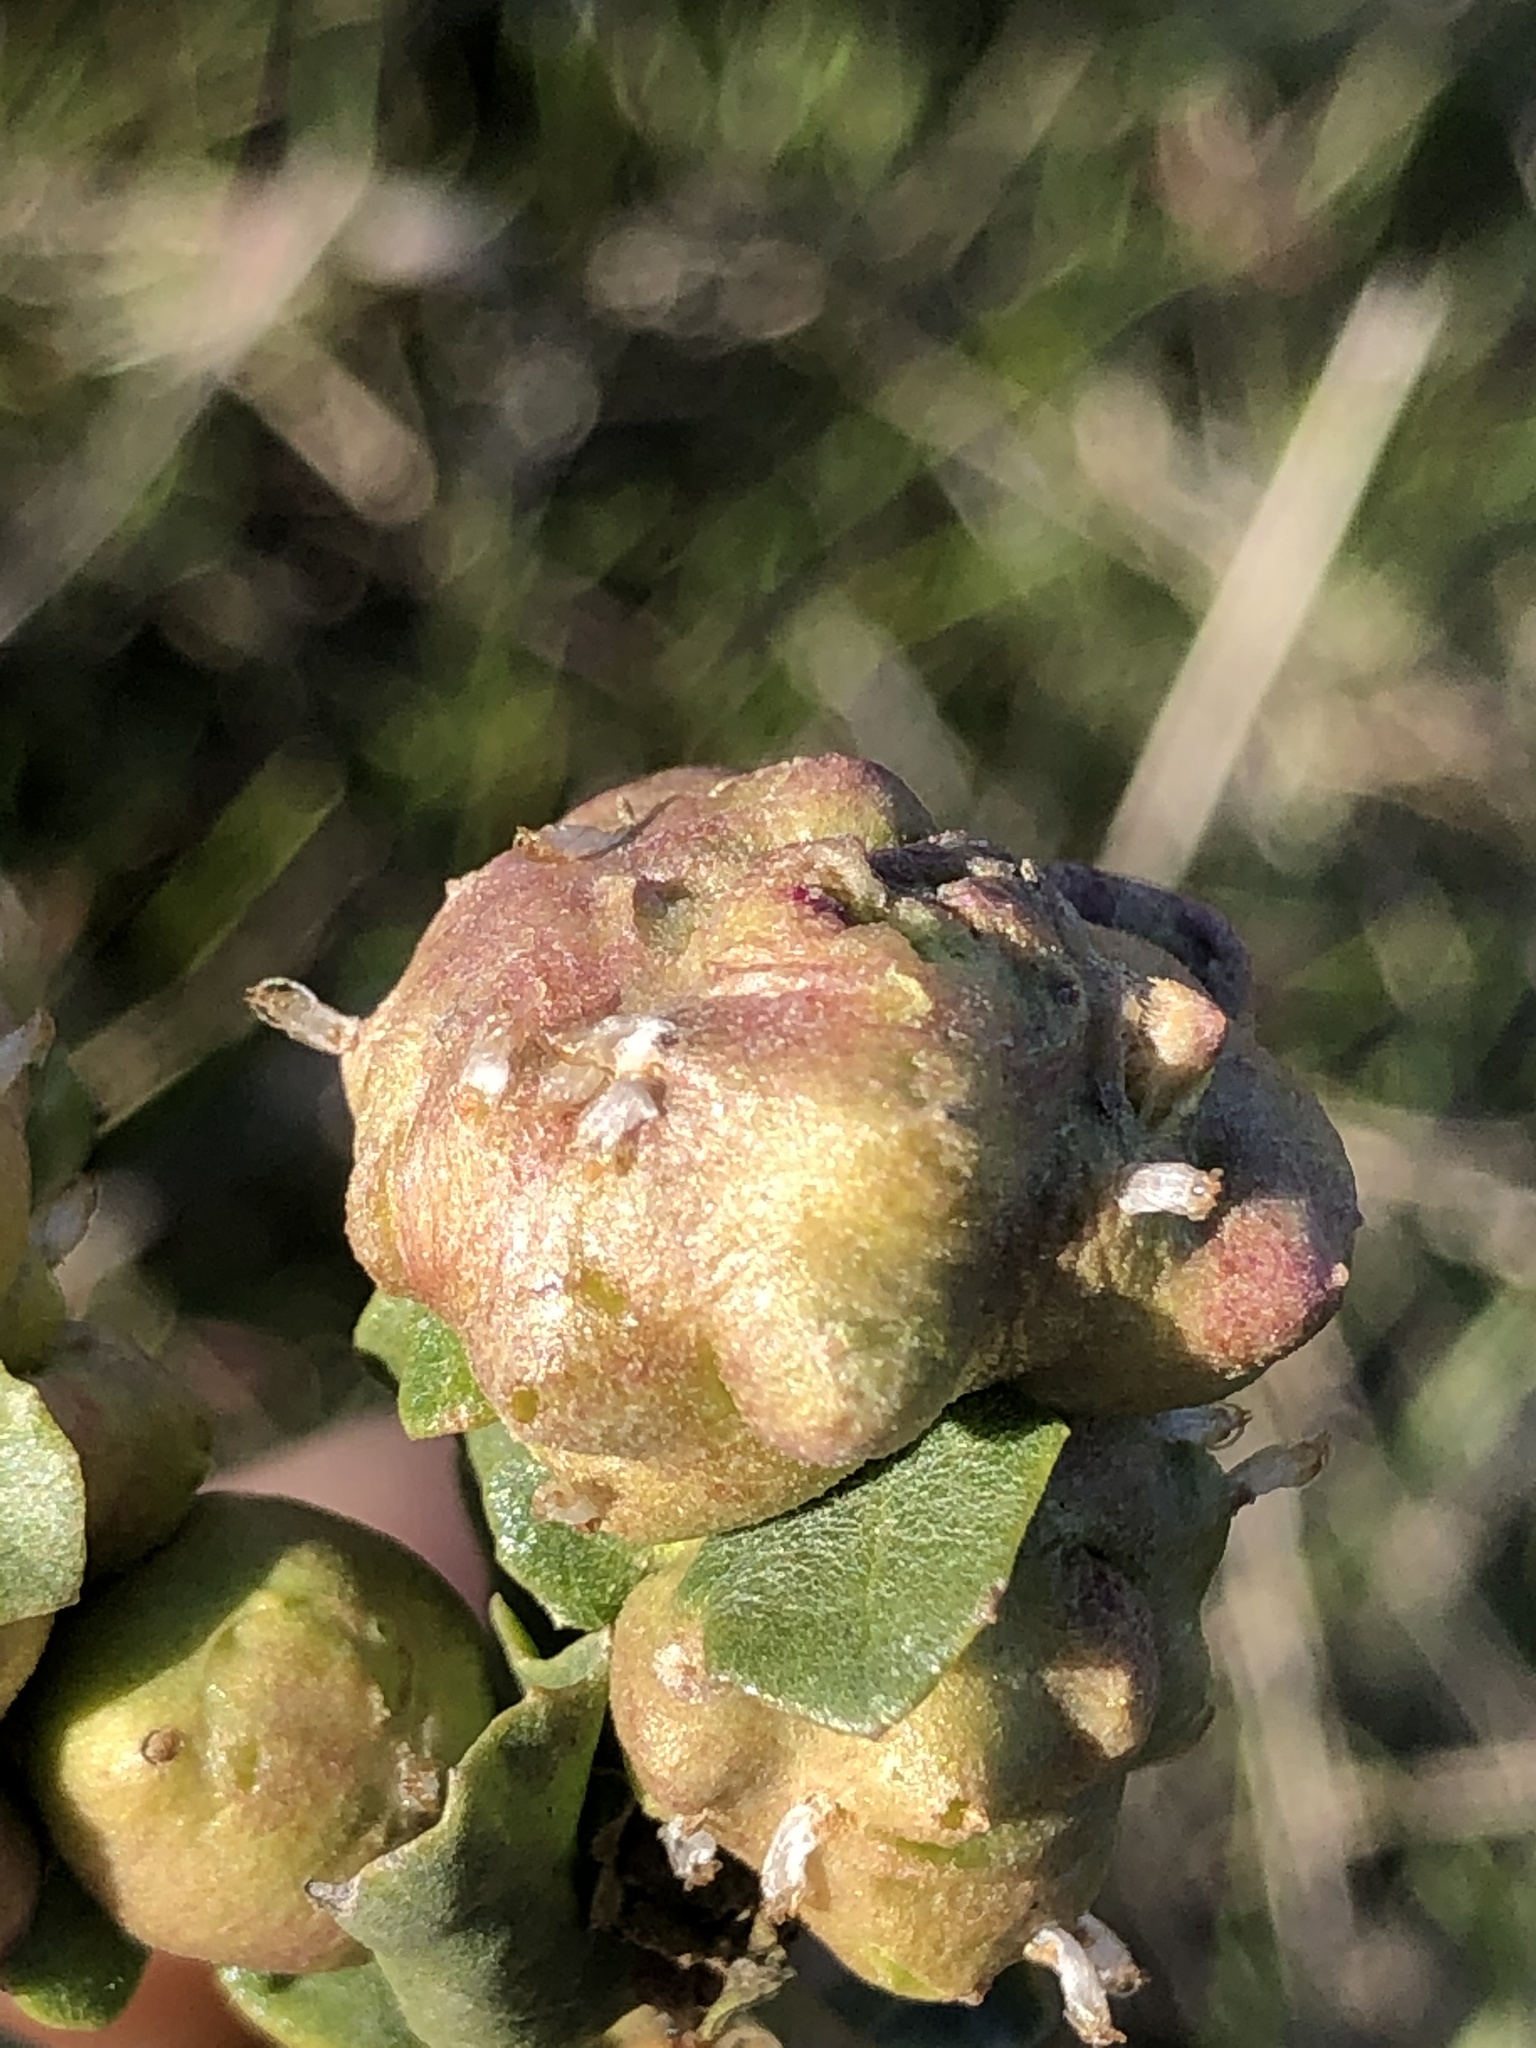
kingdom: Animalia
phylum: Arthropoda
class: Insecta
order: Diptera
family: Cecidomyiidae
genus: Rhopalomyia
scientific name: Rhopalomyia californica
